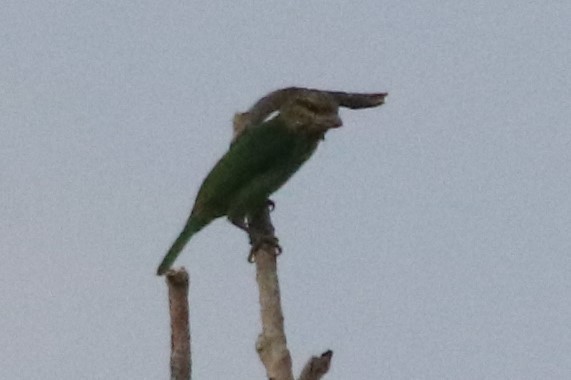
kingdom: Animalia
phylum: Chordata
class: Aves
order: Piciformes
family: Megalaimidae
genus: Psilopogon
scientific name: Psilopogon faiostrictus
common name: Green-eared barbet
